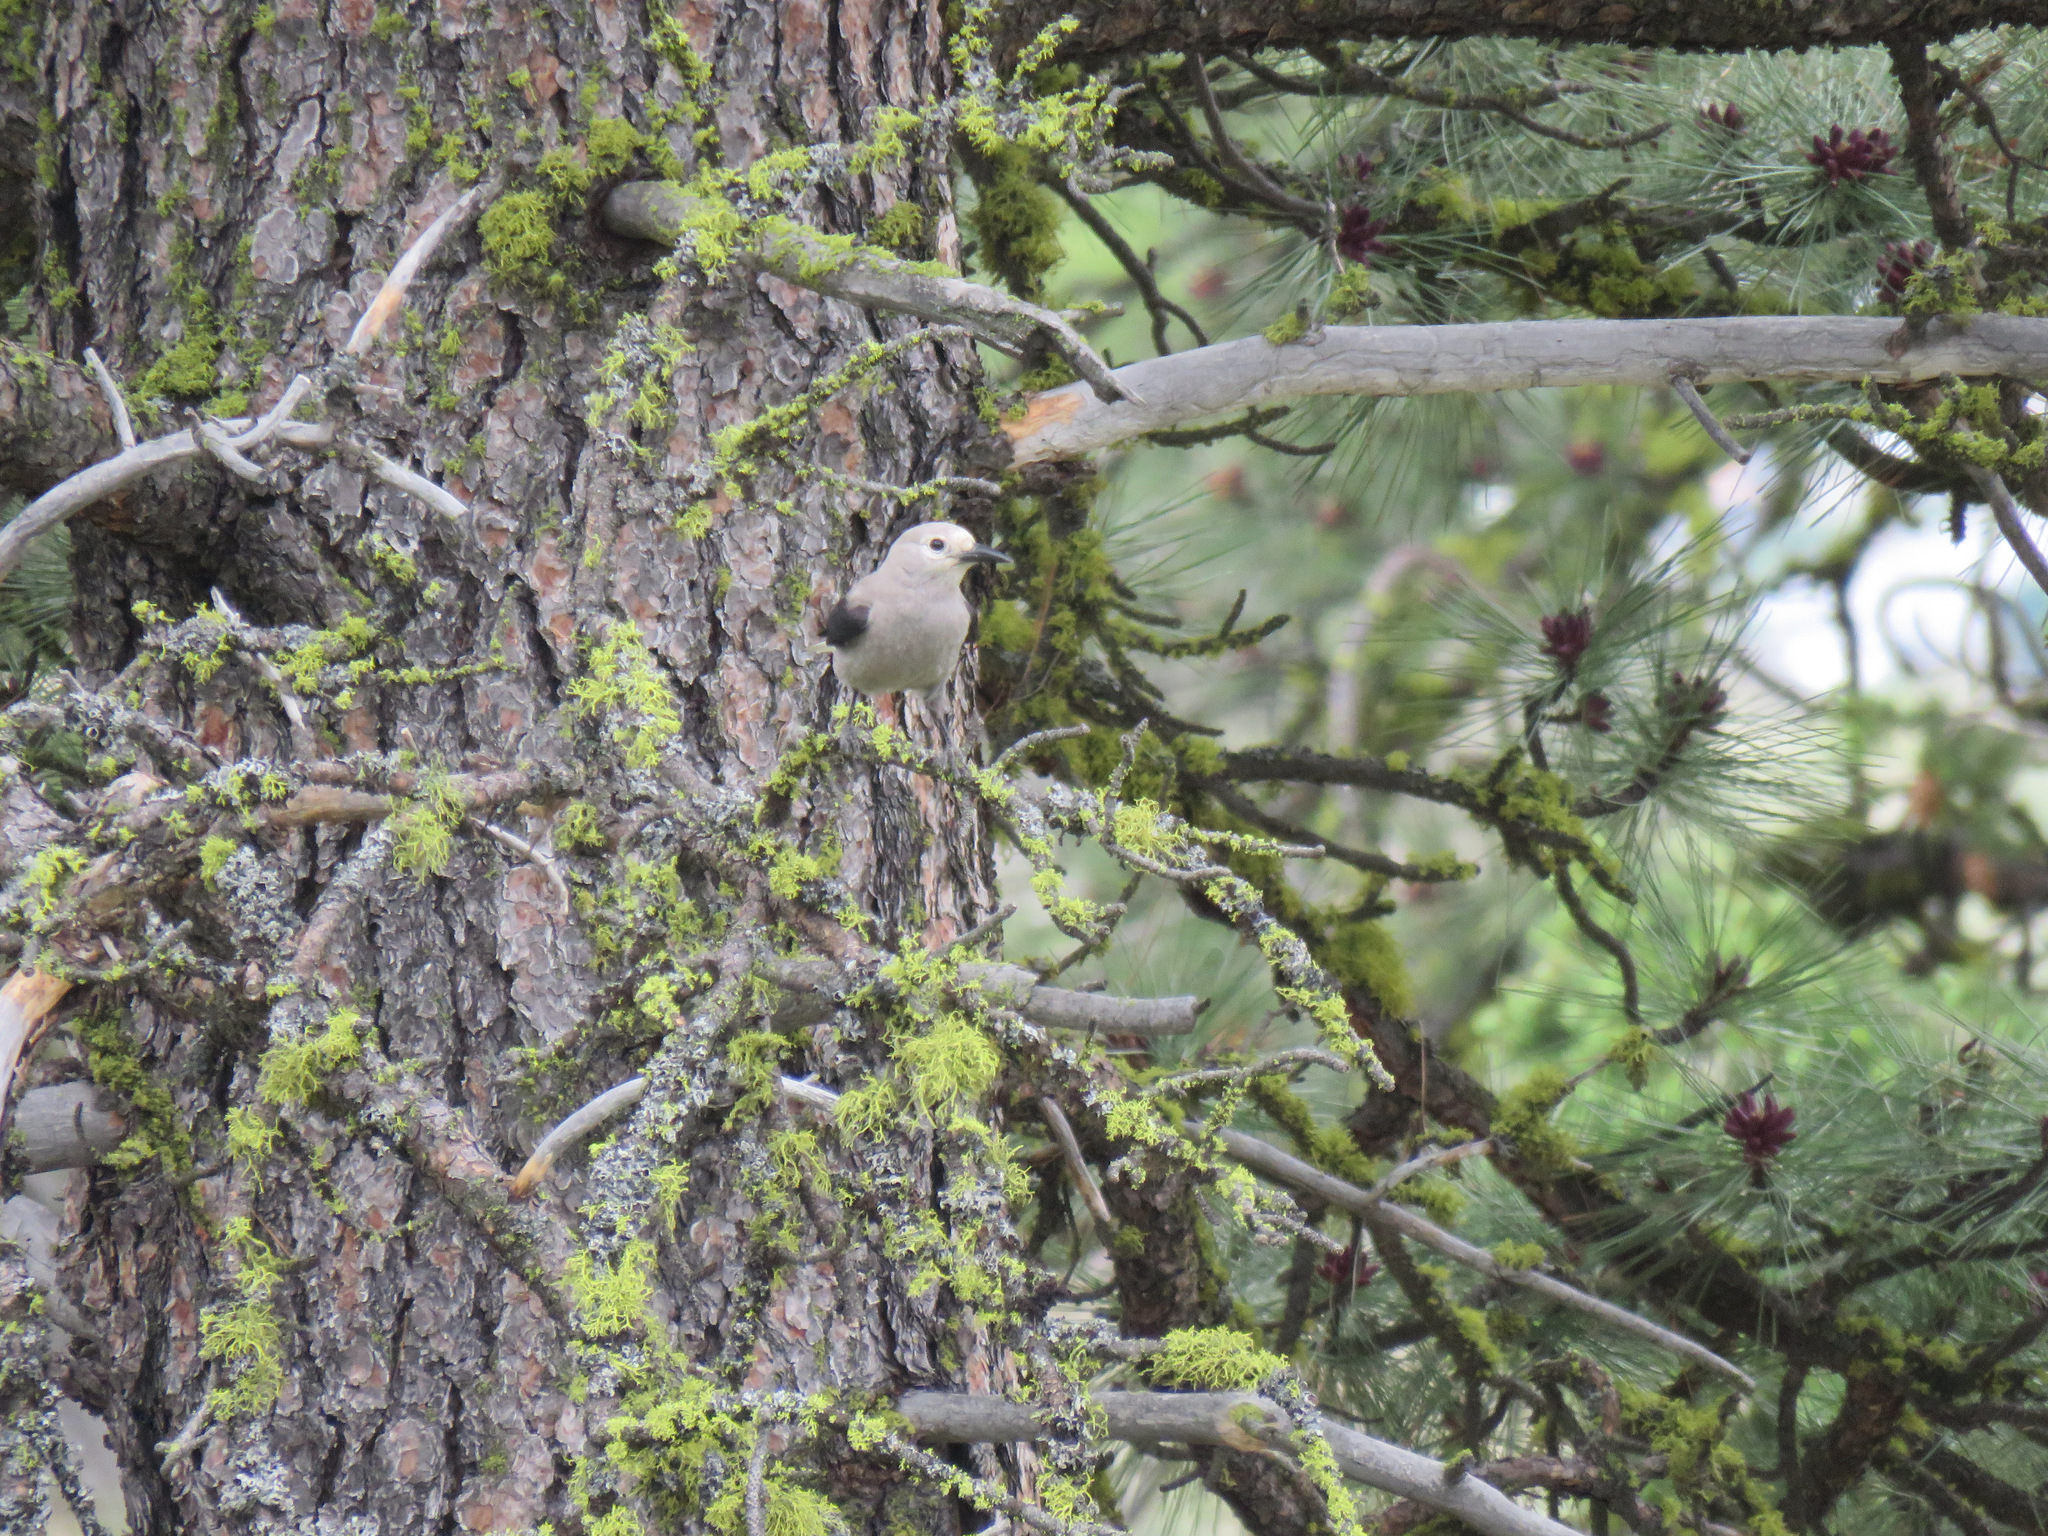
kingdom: Animalia
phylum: Chordata
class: Aves
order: Passeriformes
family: Corvidae
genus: Nucifraga
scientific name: Nucifraga columbiana
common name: Clark's nutcracker
